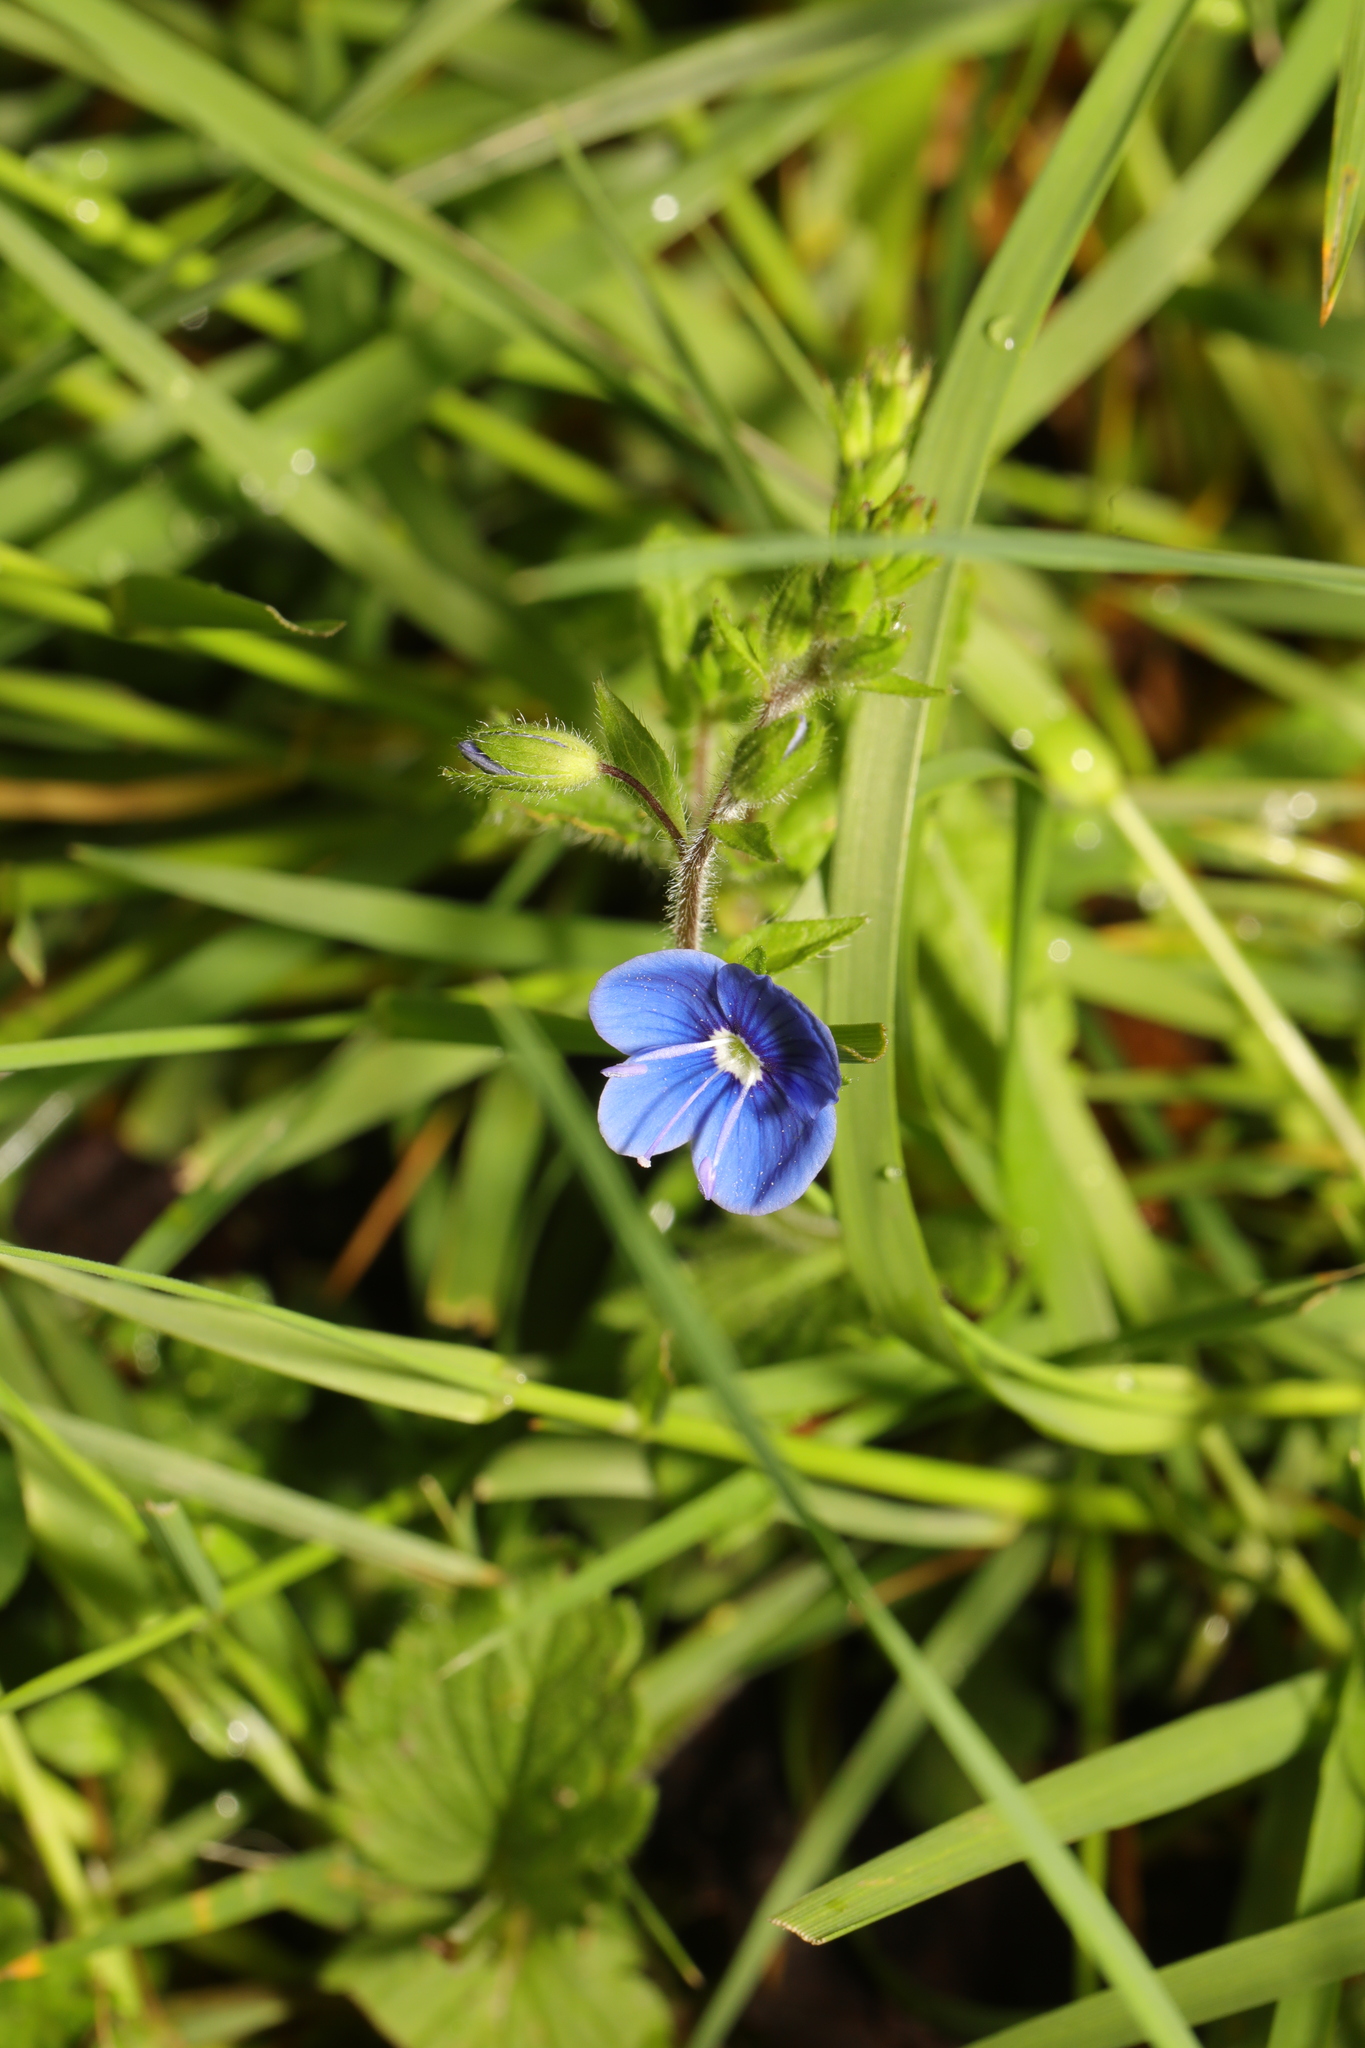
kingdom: Plantae
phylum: Tracheophyta
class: Magnoliopsida
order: Lamiales
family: Plantaginaceae
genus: Veronica
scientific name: Veronica chamaedrys
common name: Germander speedwell
